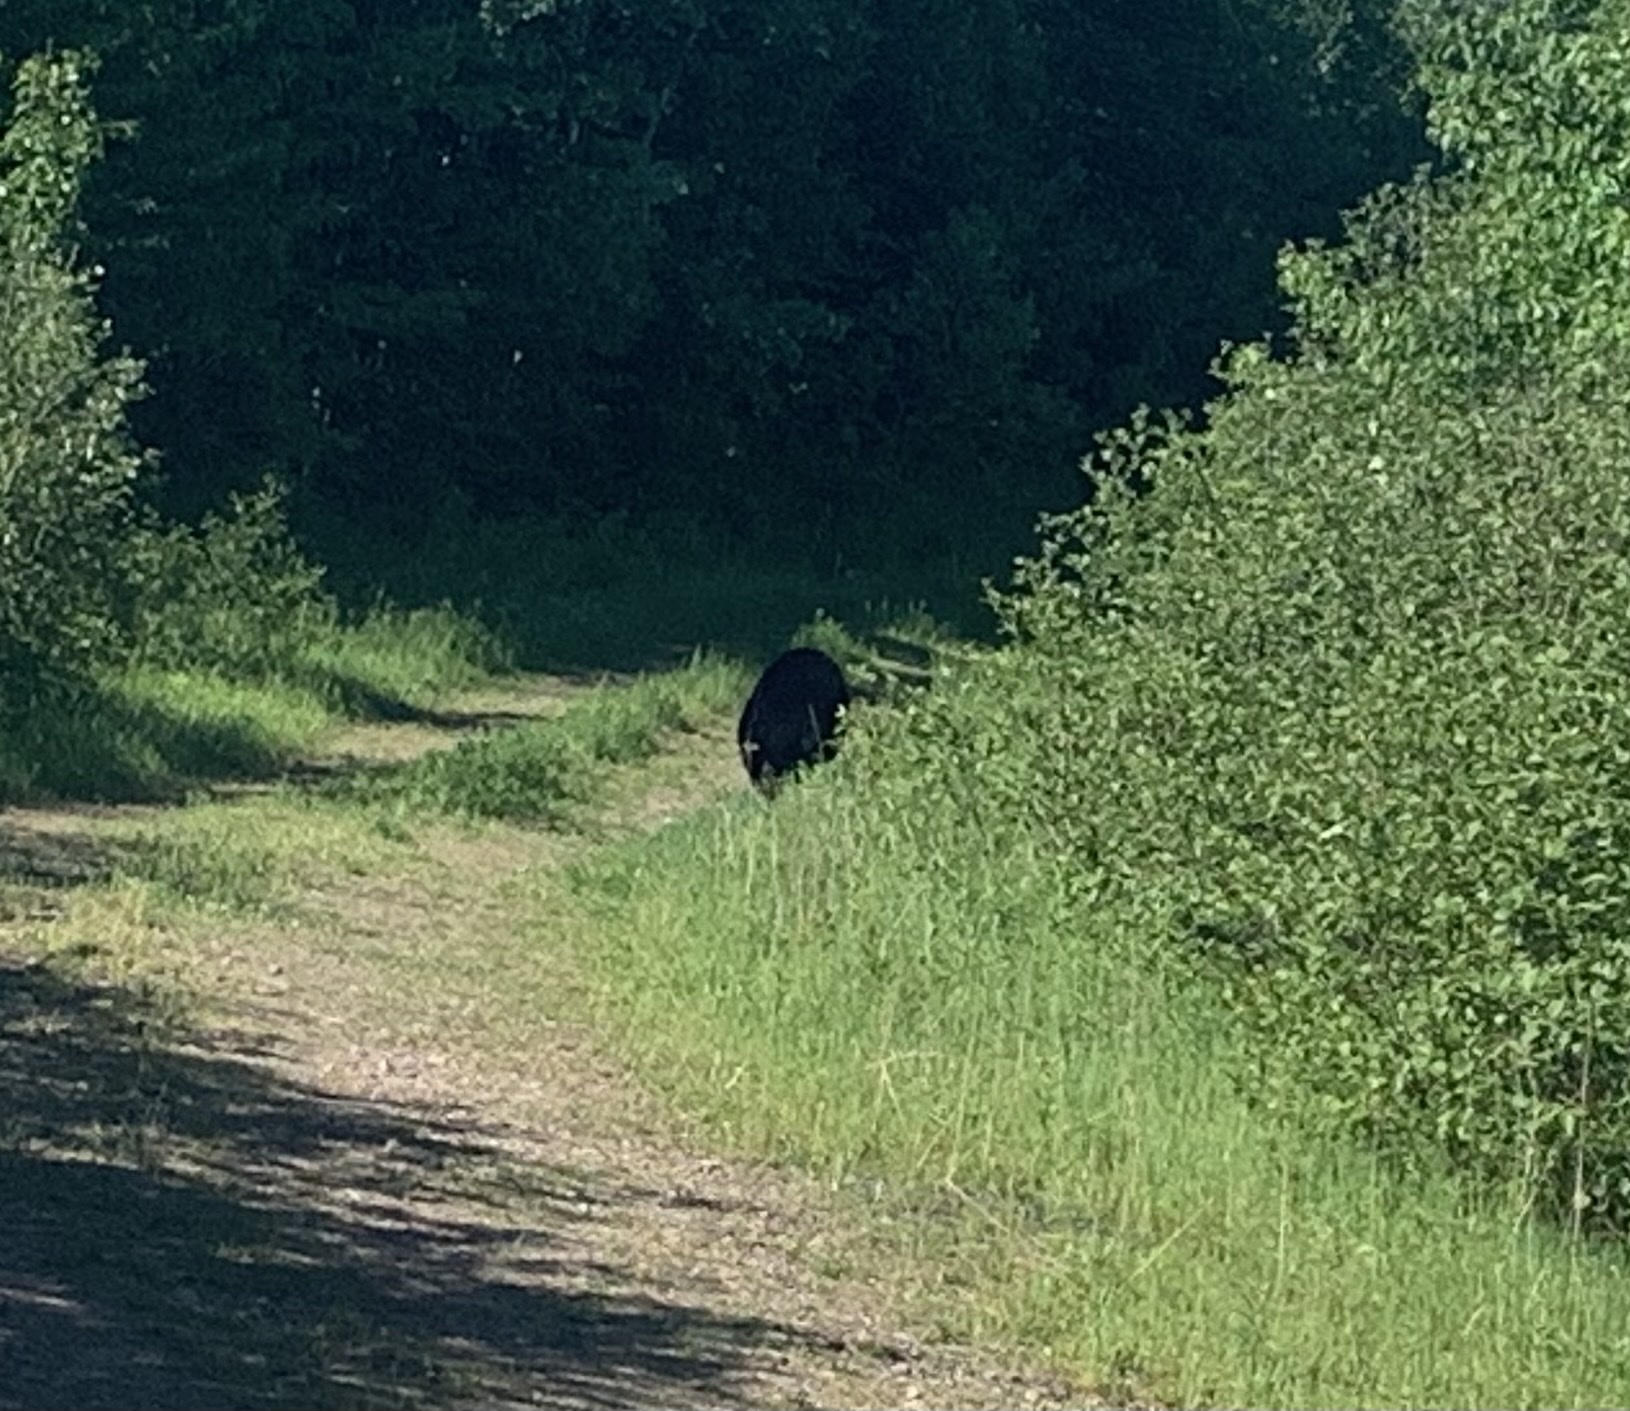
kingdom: Animalia
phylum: Chordata
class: Mammalia
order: Carnivora
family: Ursidae
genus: Ursus
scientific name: Ursus americanus
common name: American black bear
